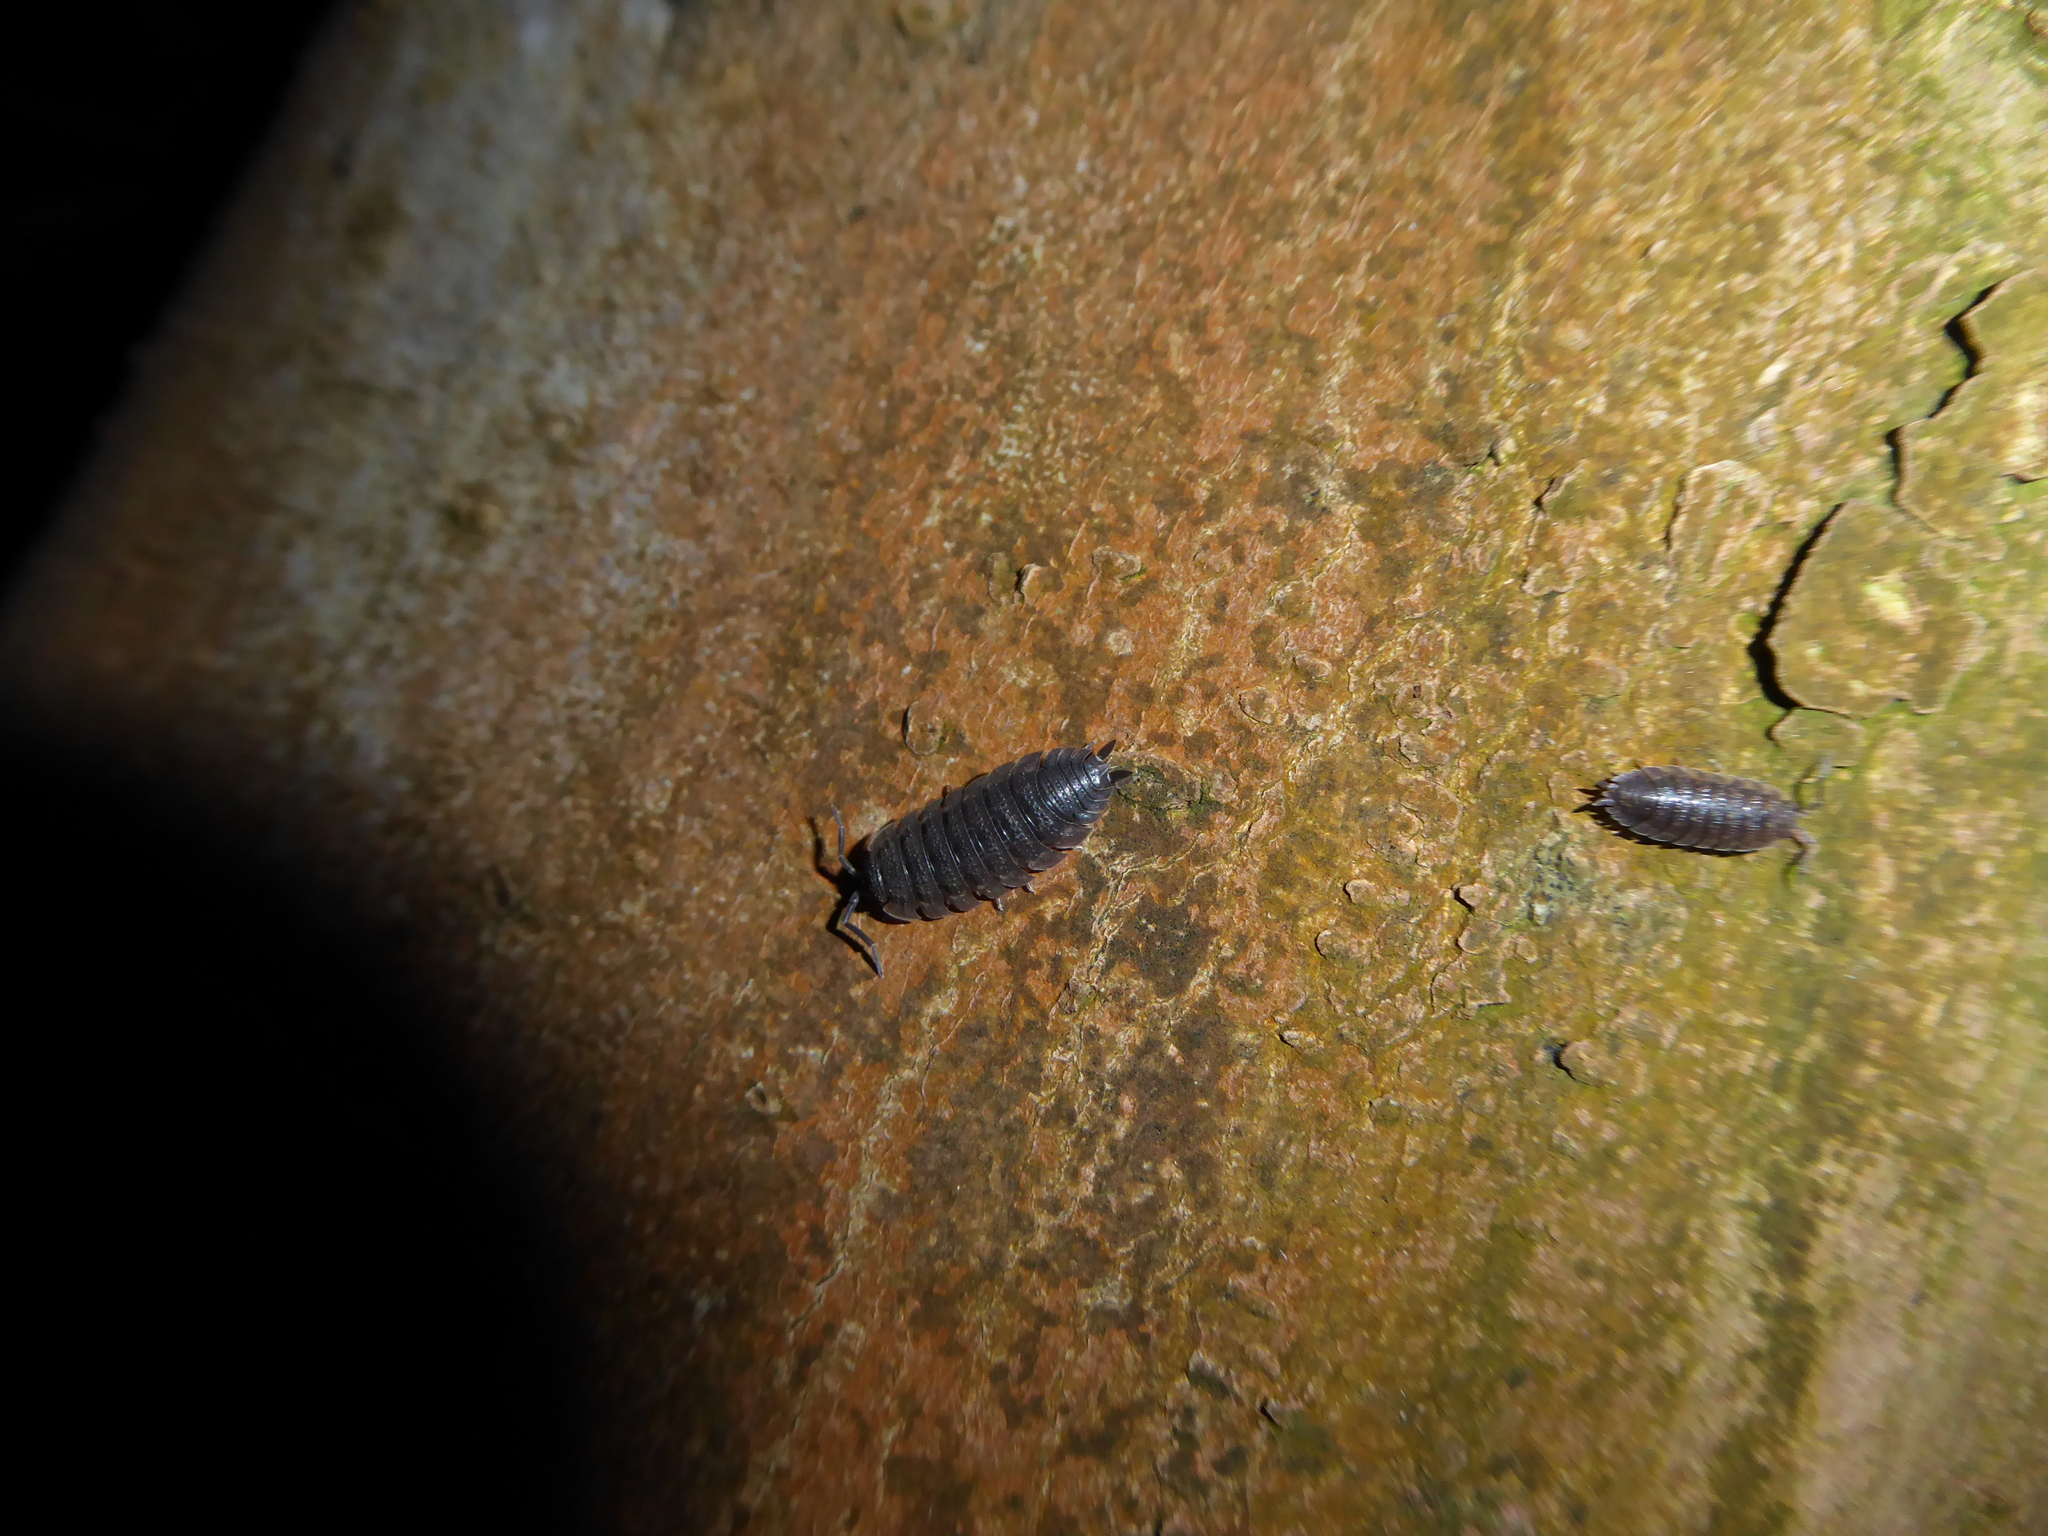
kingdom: Animalia
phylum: Arthropoda
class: Malacostraca
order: Isopoda
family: Porcellionidae
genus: Porcellio
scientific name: Porcellio scaber
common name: Common rough woodlouse
